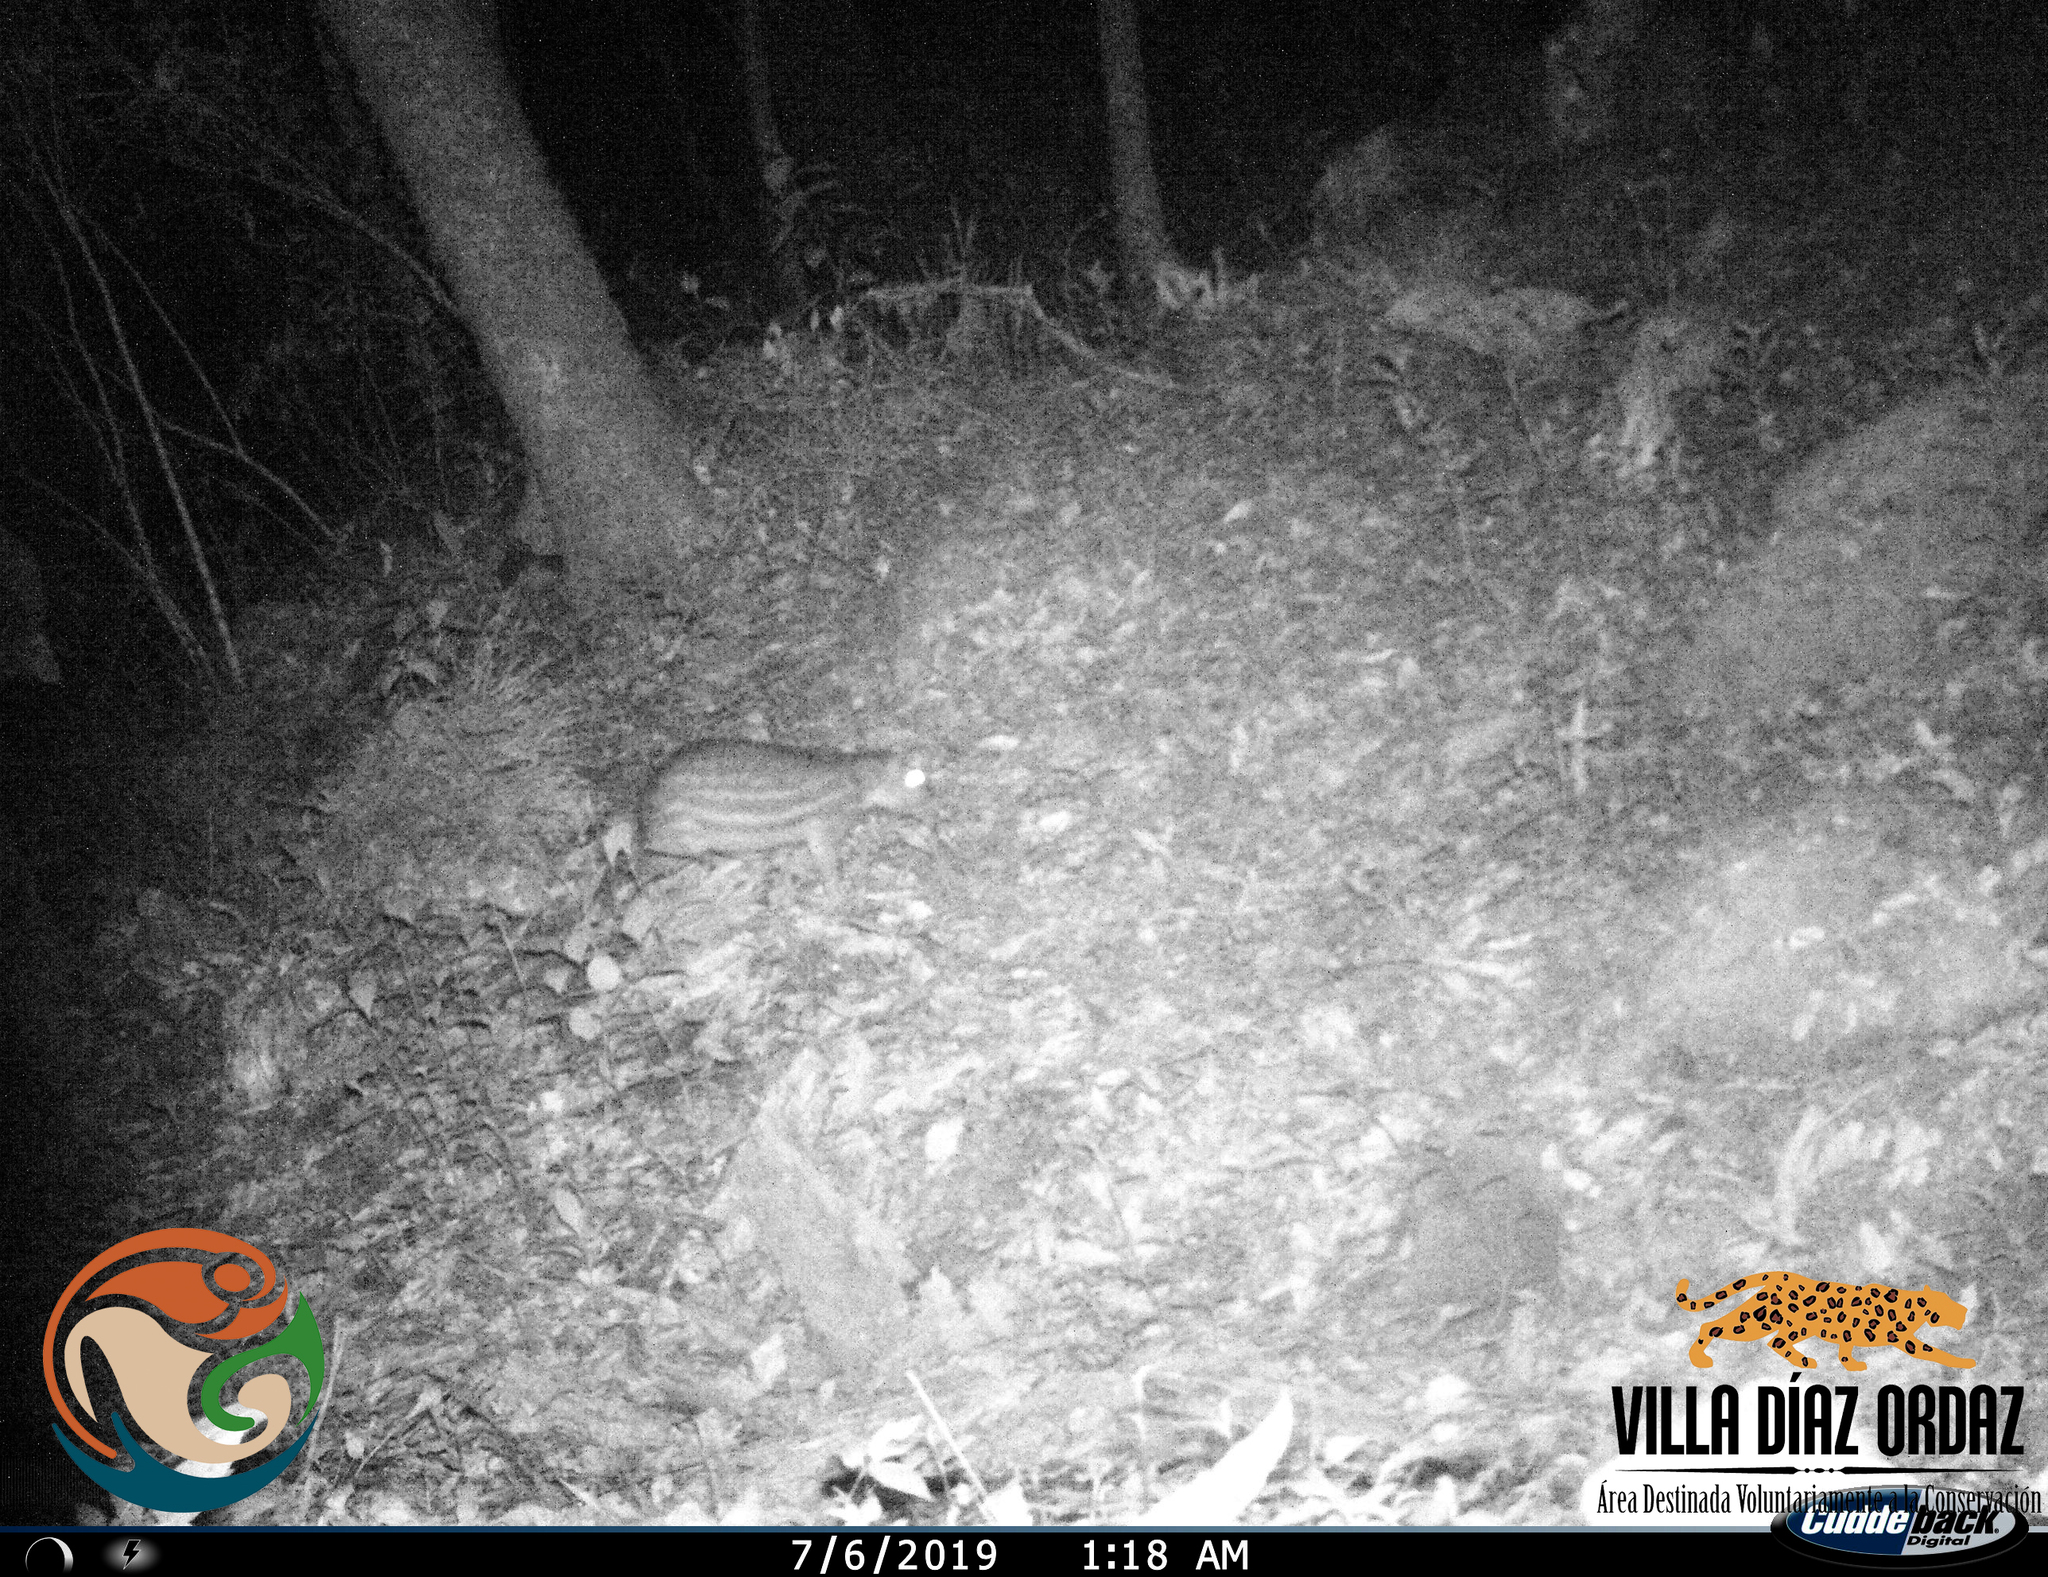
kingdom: Animalia
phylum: Chordata
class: Mammalia
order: Rodentia
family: Cuniculidae
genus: Cuniculus
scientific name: Cuniculus paca
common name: Lowland paca
